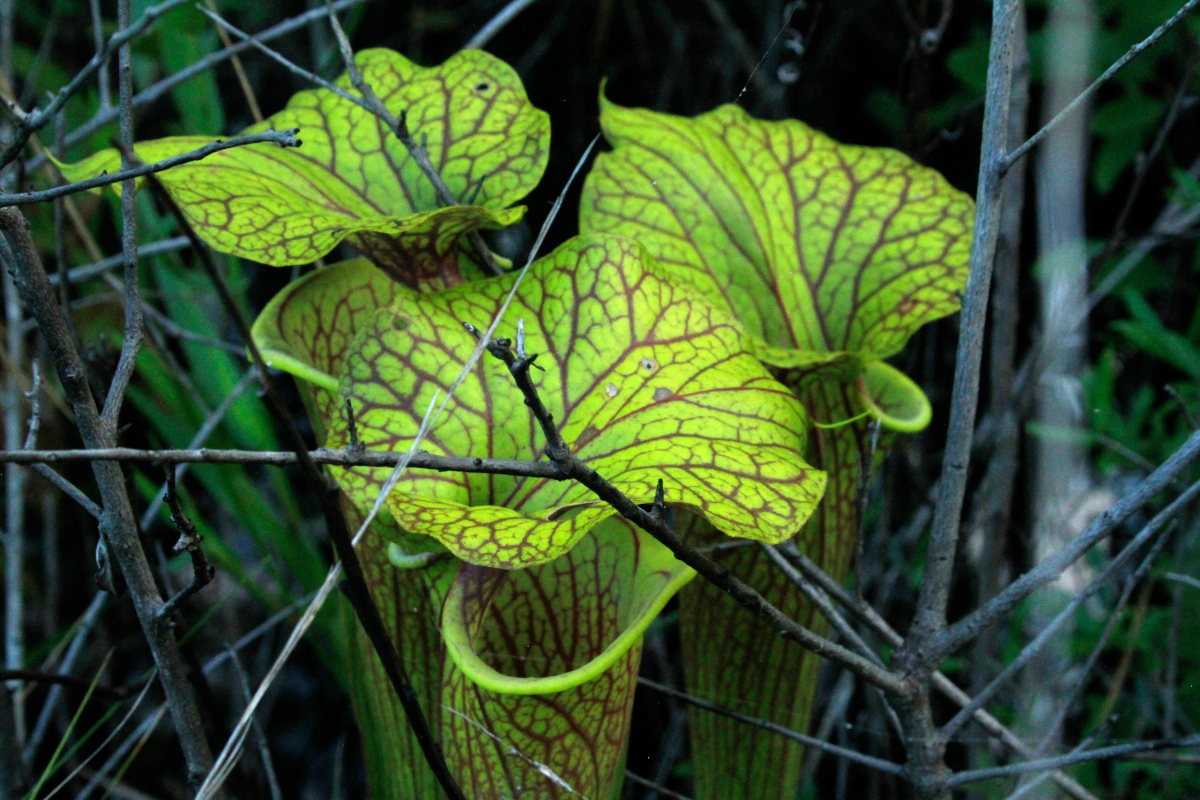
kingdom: Plantae
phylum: Tracheophyta
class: Magnoliopsida
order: Ericales
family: Sarraceniaceae
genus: Sarracenia
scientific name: Sarracenia flava
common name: Trumpets
